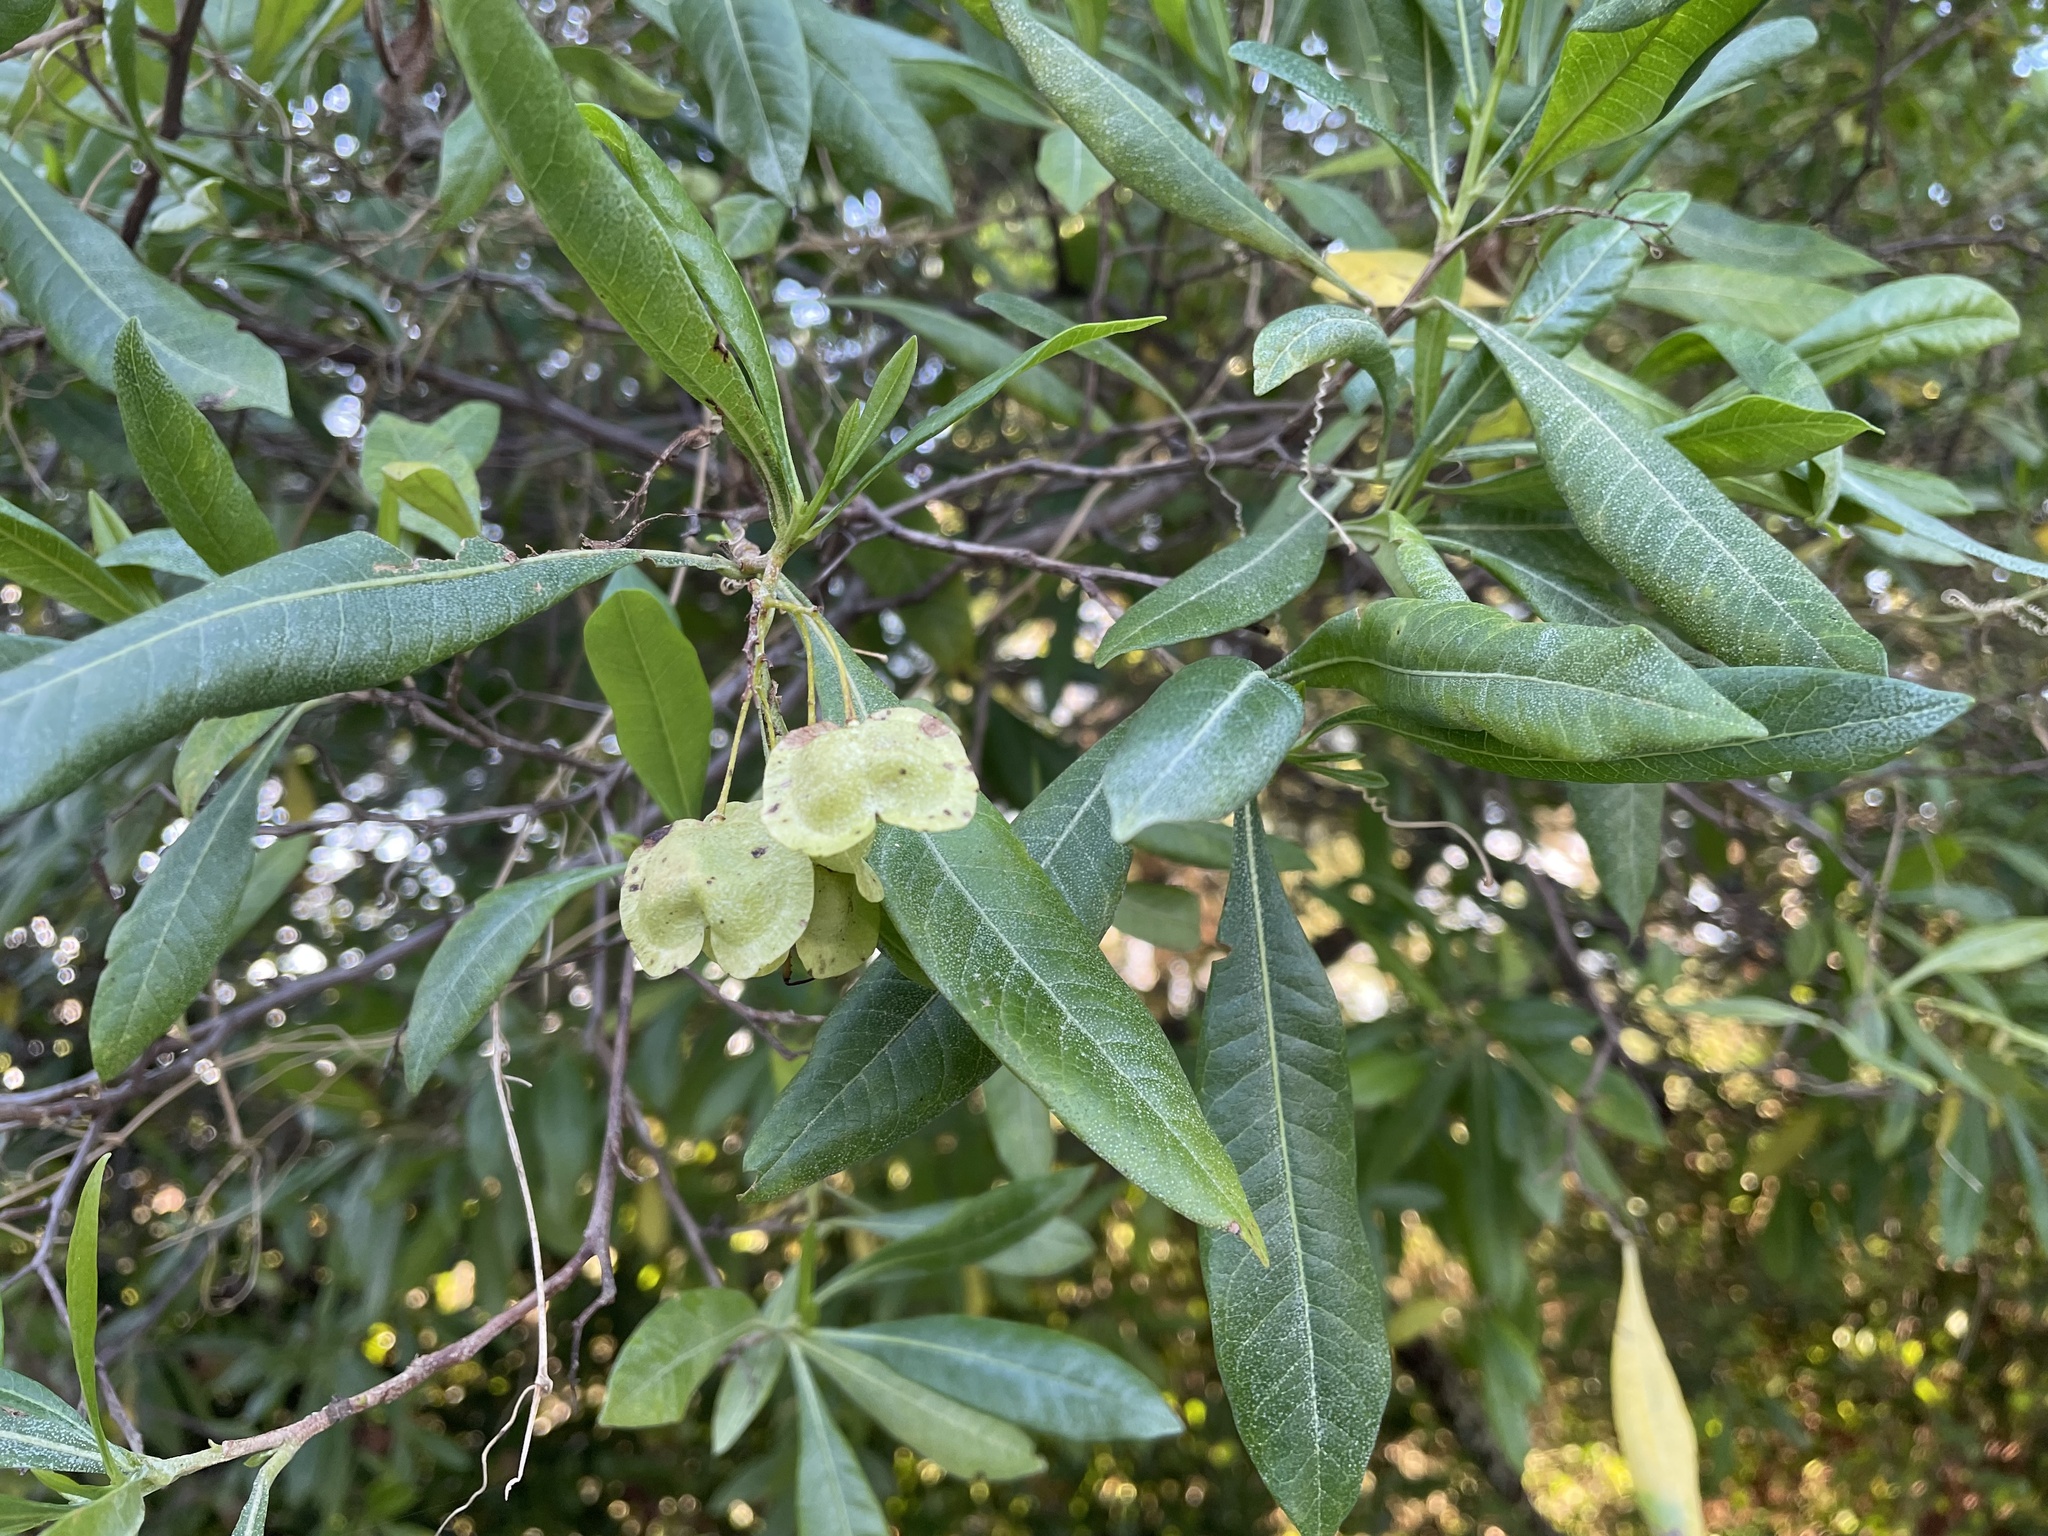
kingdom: Plantae
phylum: Tracheophyta
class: Magnoliopsida
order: Sapindales
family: Sapindaceae
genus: Dodonaea
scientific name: Dodonaea viscosa
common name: Hopbush
